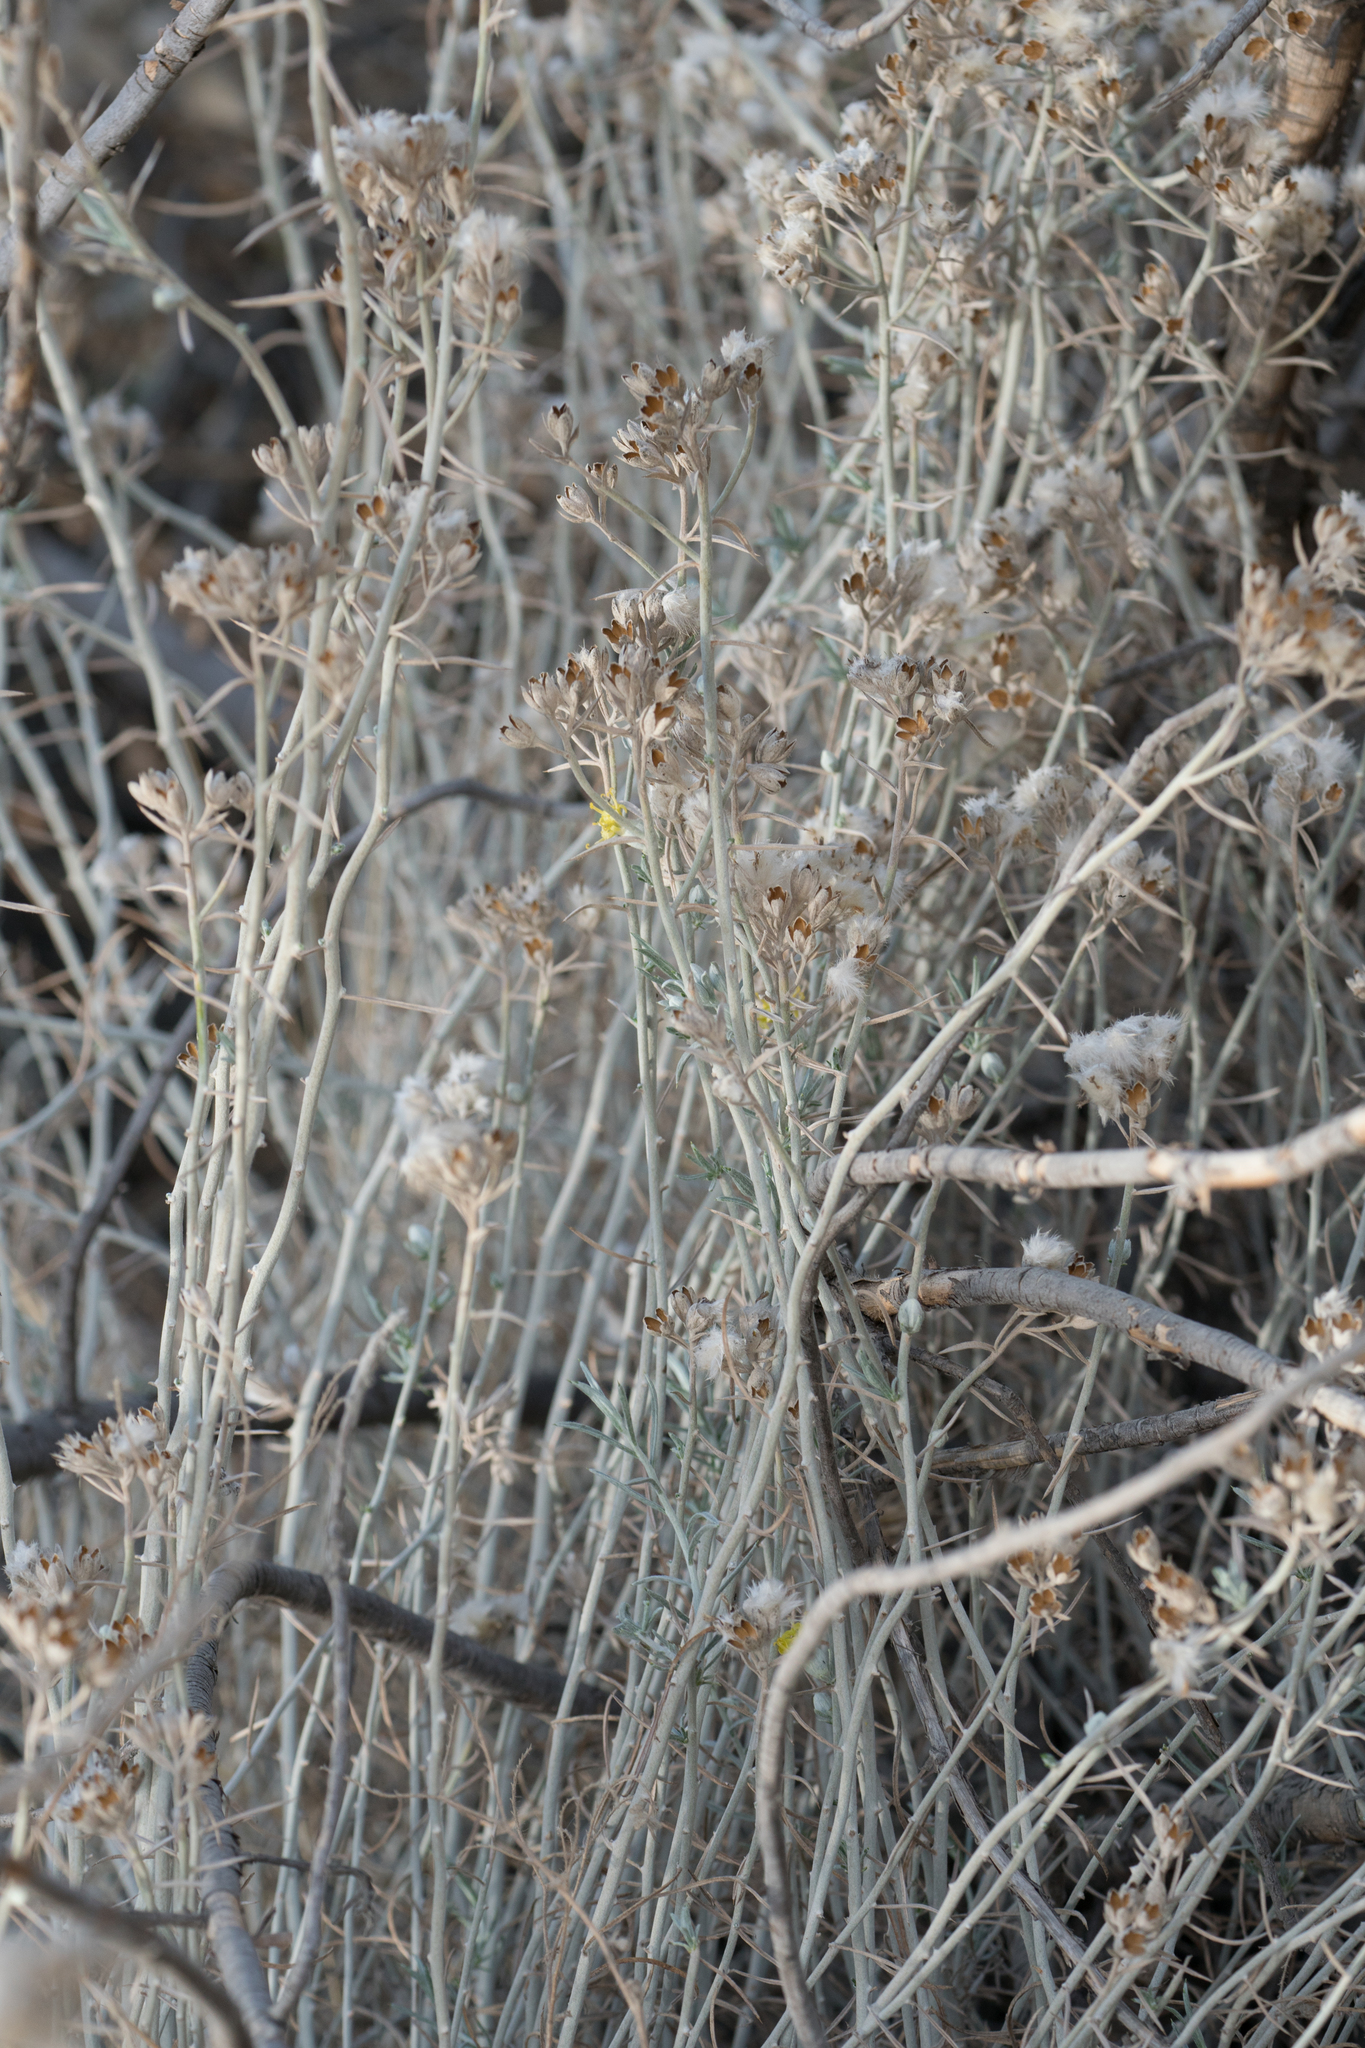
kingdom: Plantae
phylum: Tracheophyta
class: Magnoliopsida
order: Asterales
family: Asteraceae
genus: Tetradymia
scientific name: Tetradymia comosa
